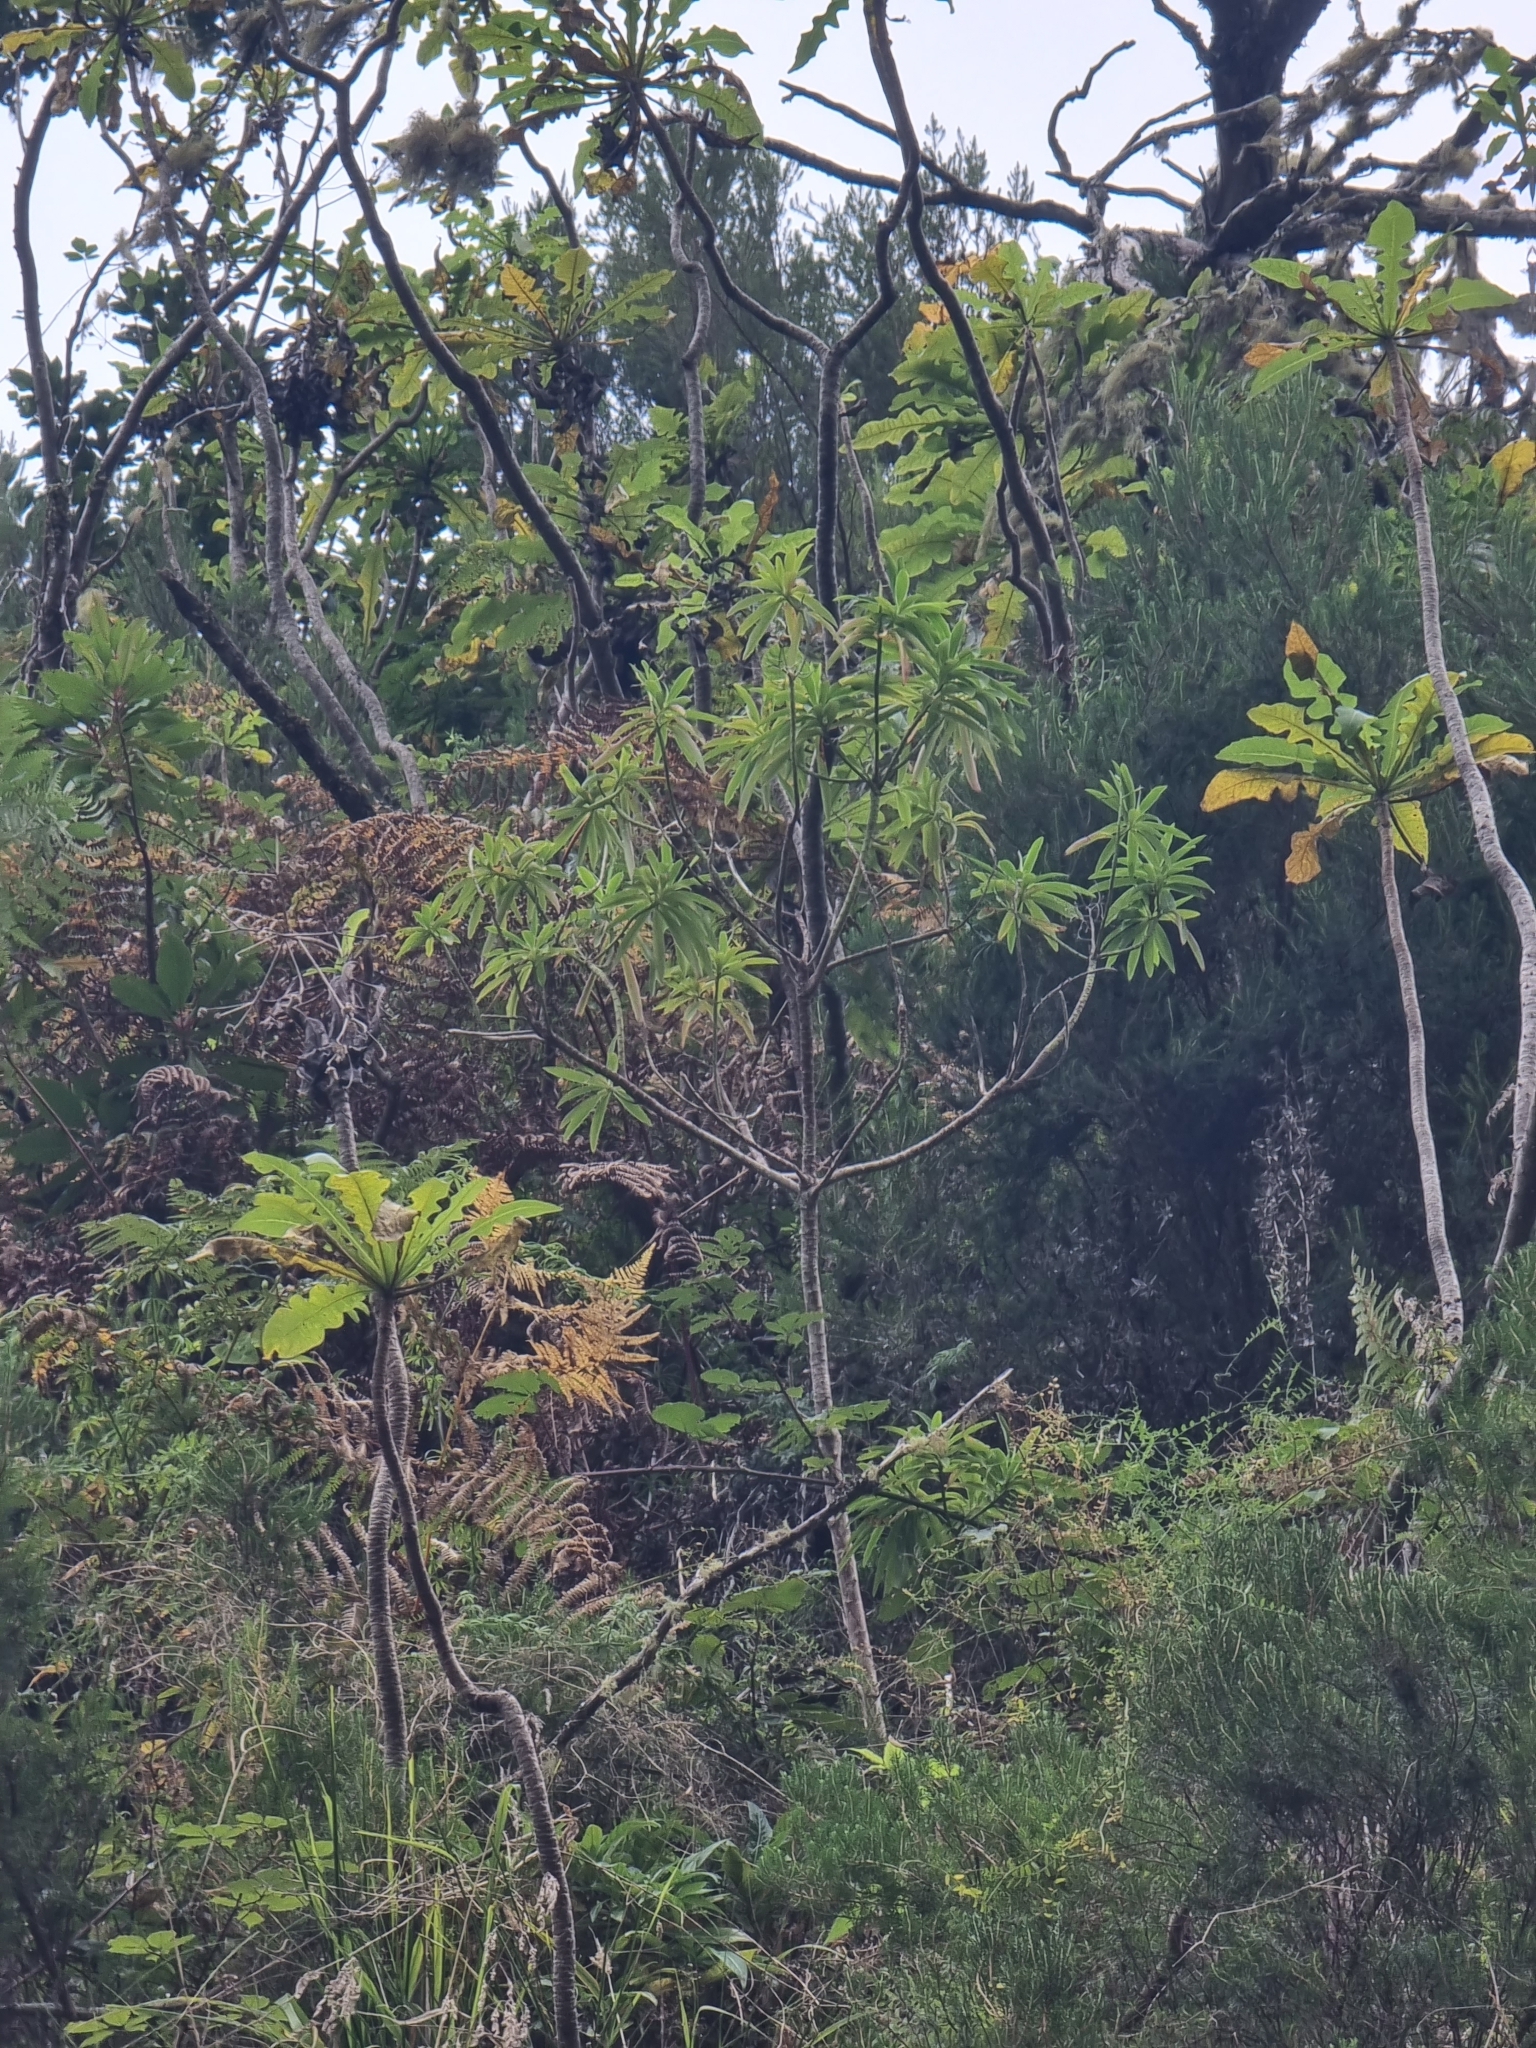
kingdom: Plantae
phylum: Tracheophyta
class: Magnoliopsida
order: Malpighiales
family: Euphorbiaceae
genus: Euphorbia
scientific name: Euphorbia mellifera
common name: Canary spurge
